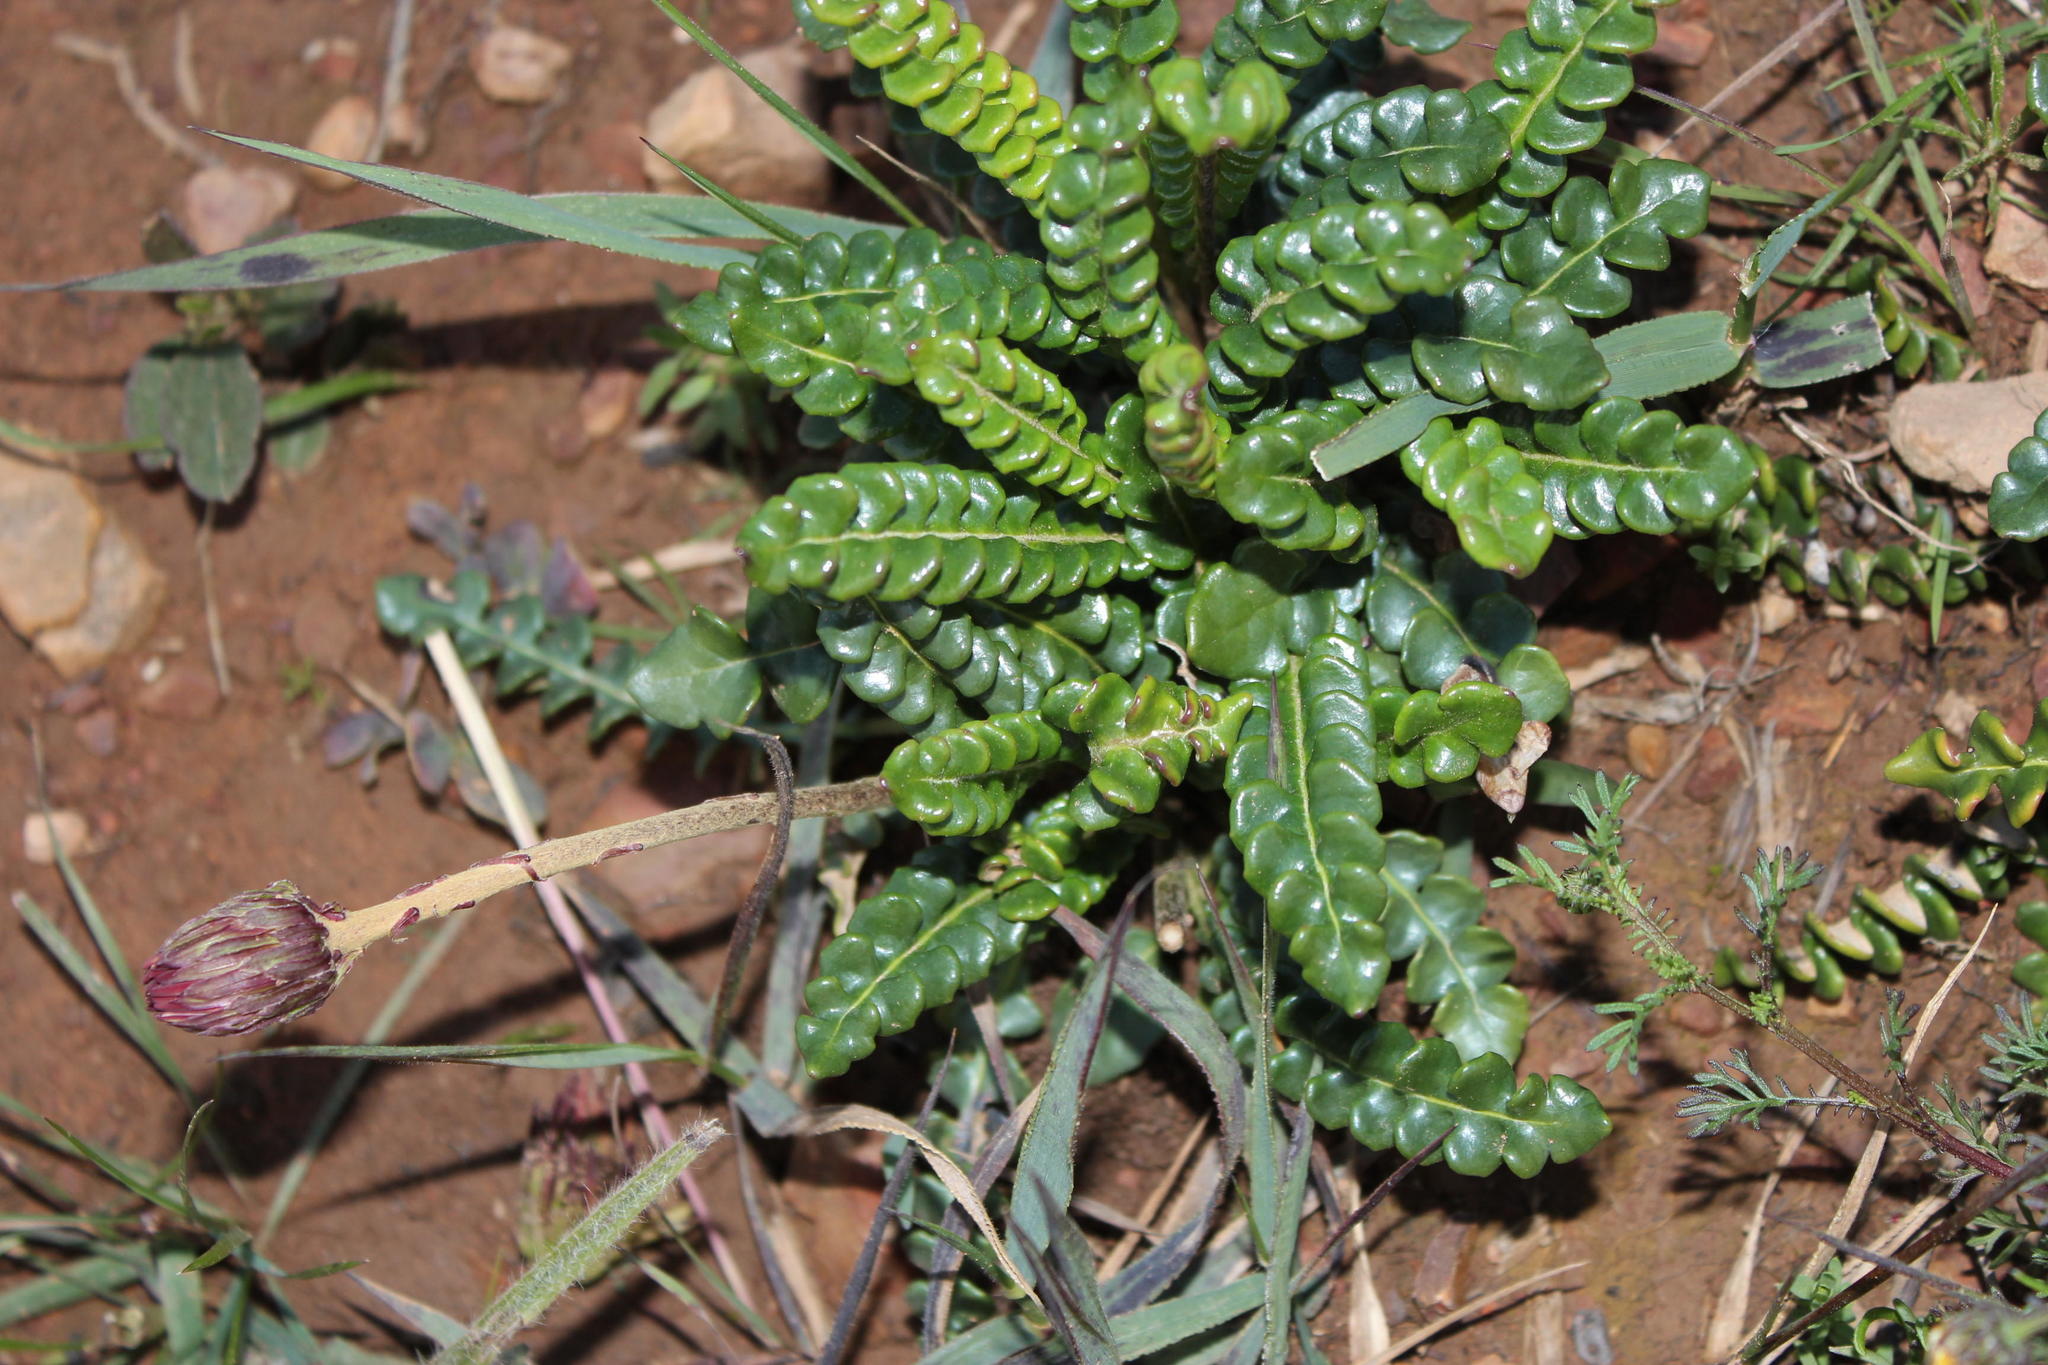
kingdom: Plantae
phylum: Tracheophyta
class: Magnoliopsida
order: Asterales
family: Asteraceae
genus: Gerbera
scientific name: Gerbera linnaei
